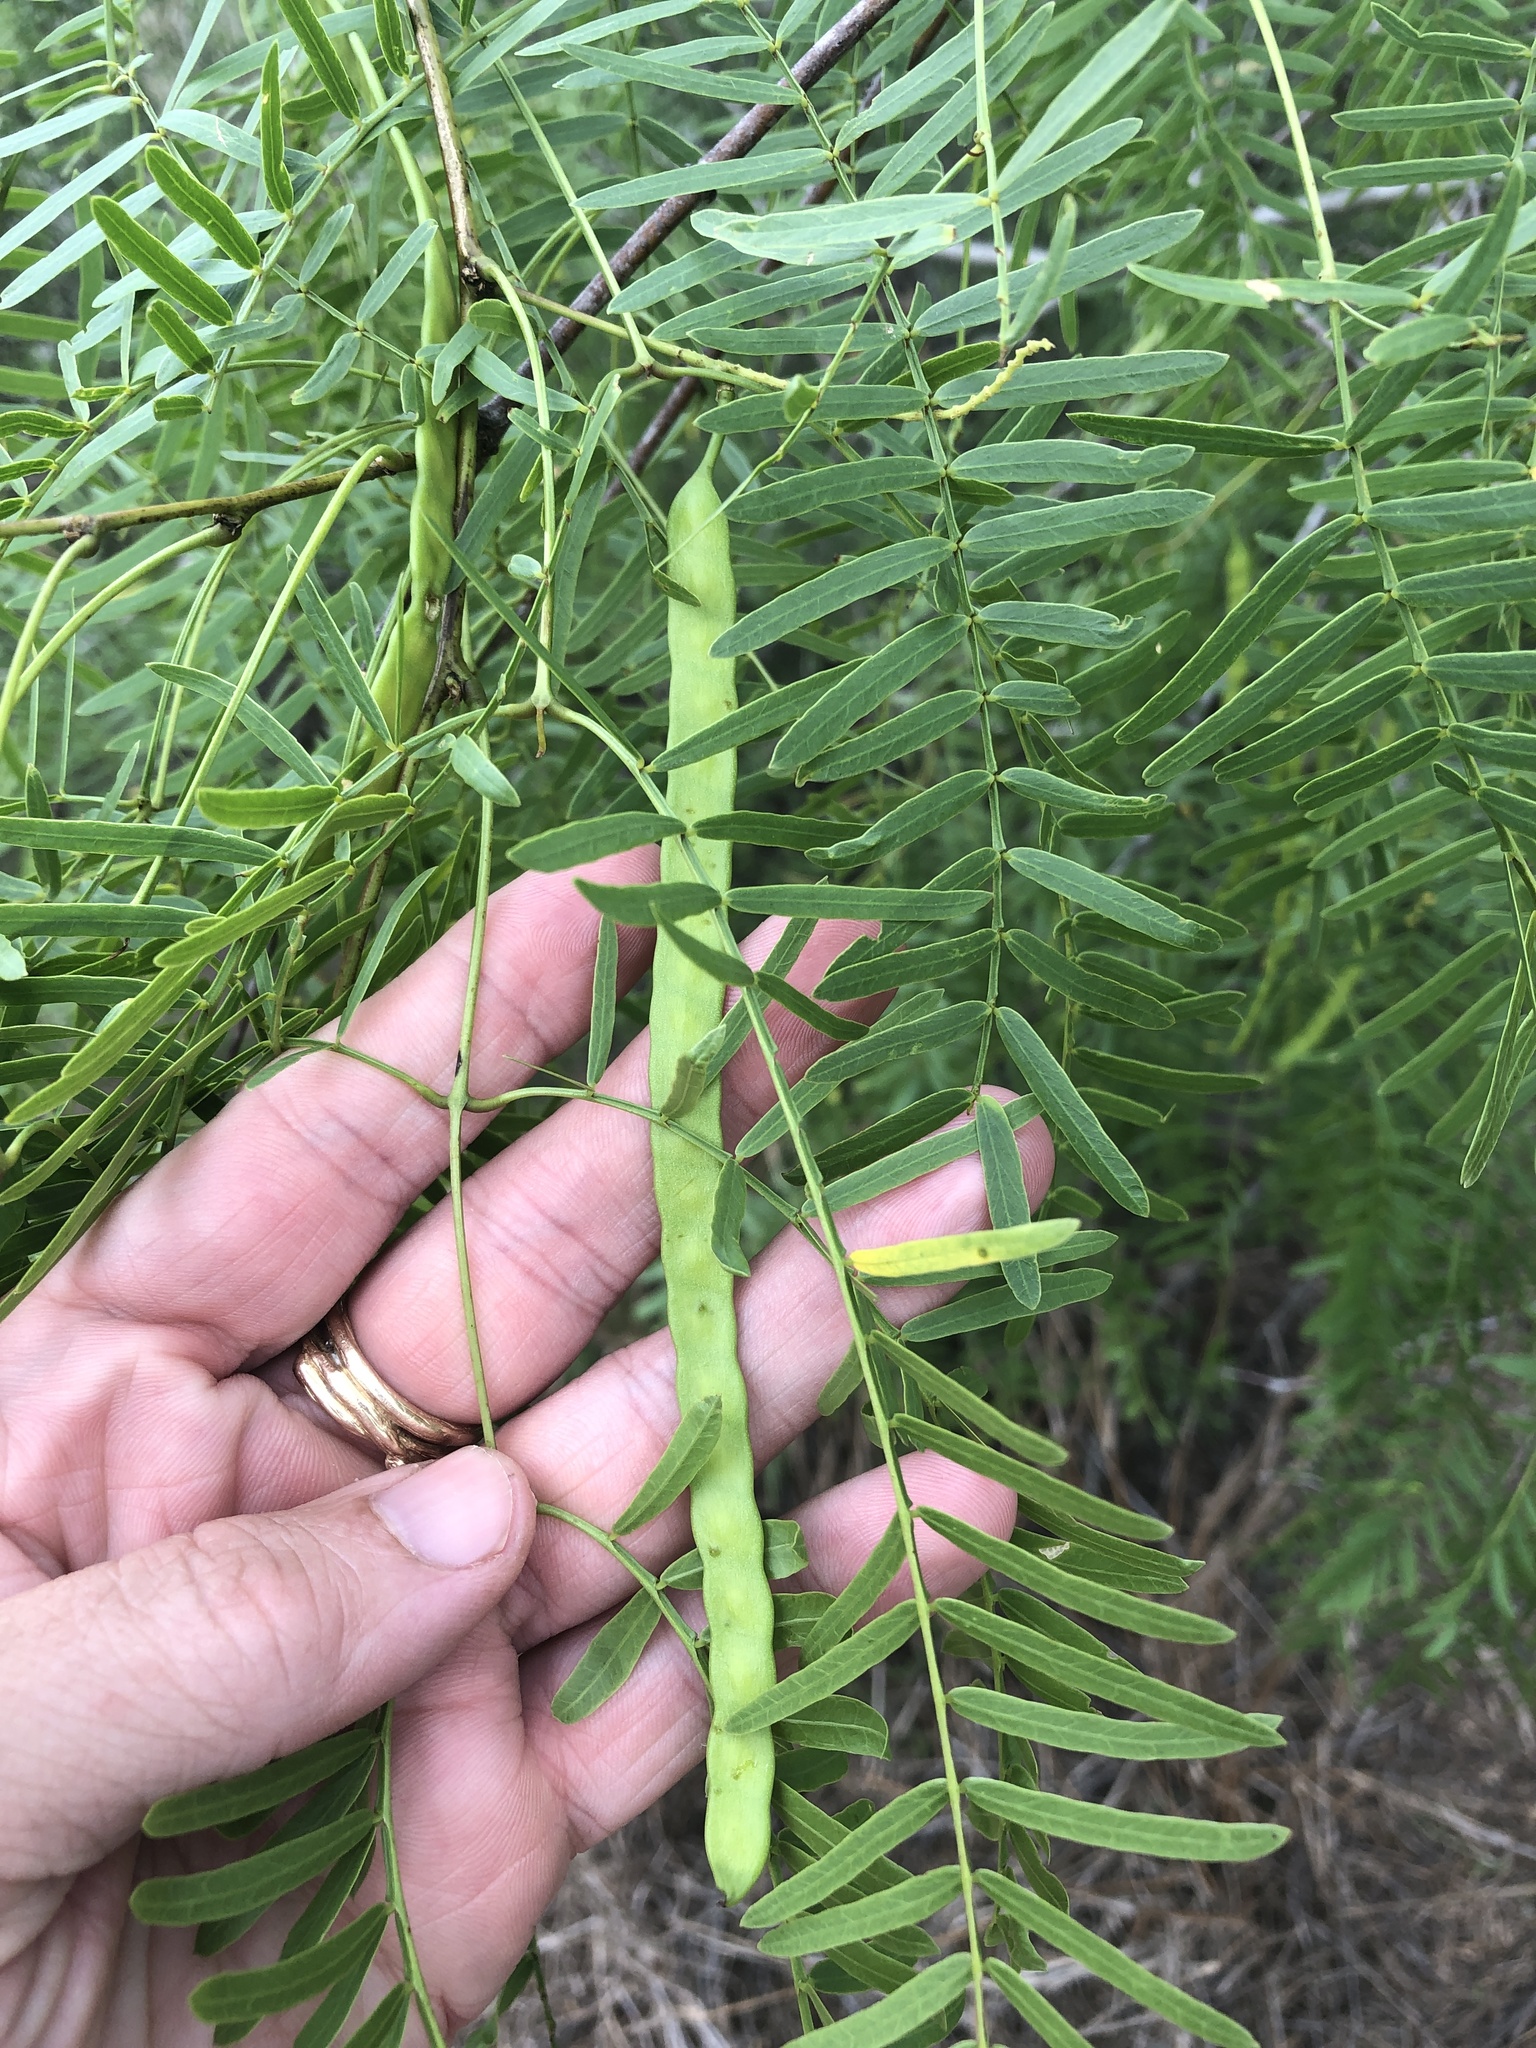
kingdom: Plantae
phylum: Tracheophyta
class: Magnoliopsida
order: Fabales
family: Fabaceae
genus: Prosopis
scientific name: Prosopis glandulosa
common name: Honey mesquite
